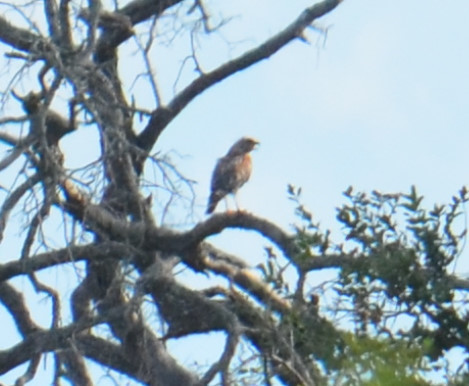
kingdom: Animalia
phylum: Chordata
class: Aves
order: Accipitriformes
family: Accipitridae
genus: Buteo
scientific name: Buteo lineatus
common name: Red-shouldered hawk
